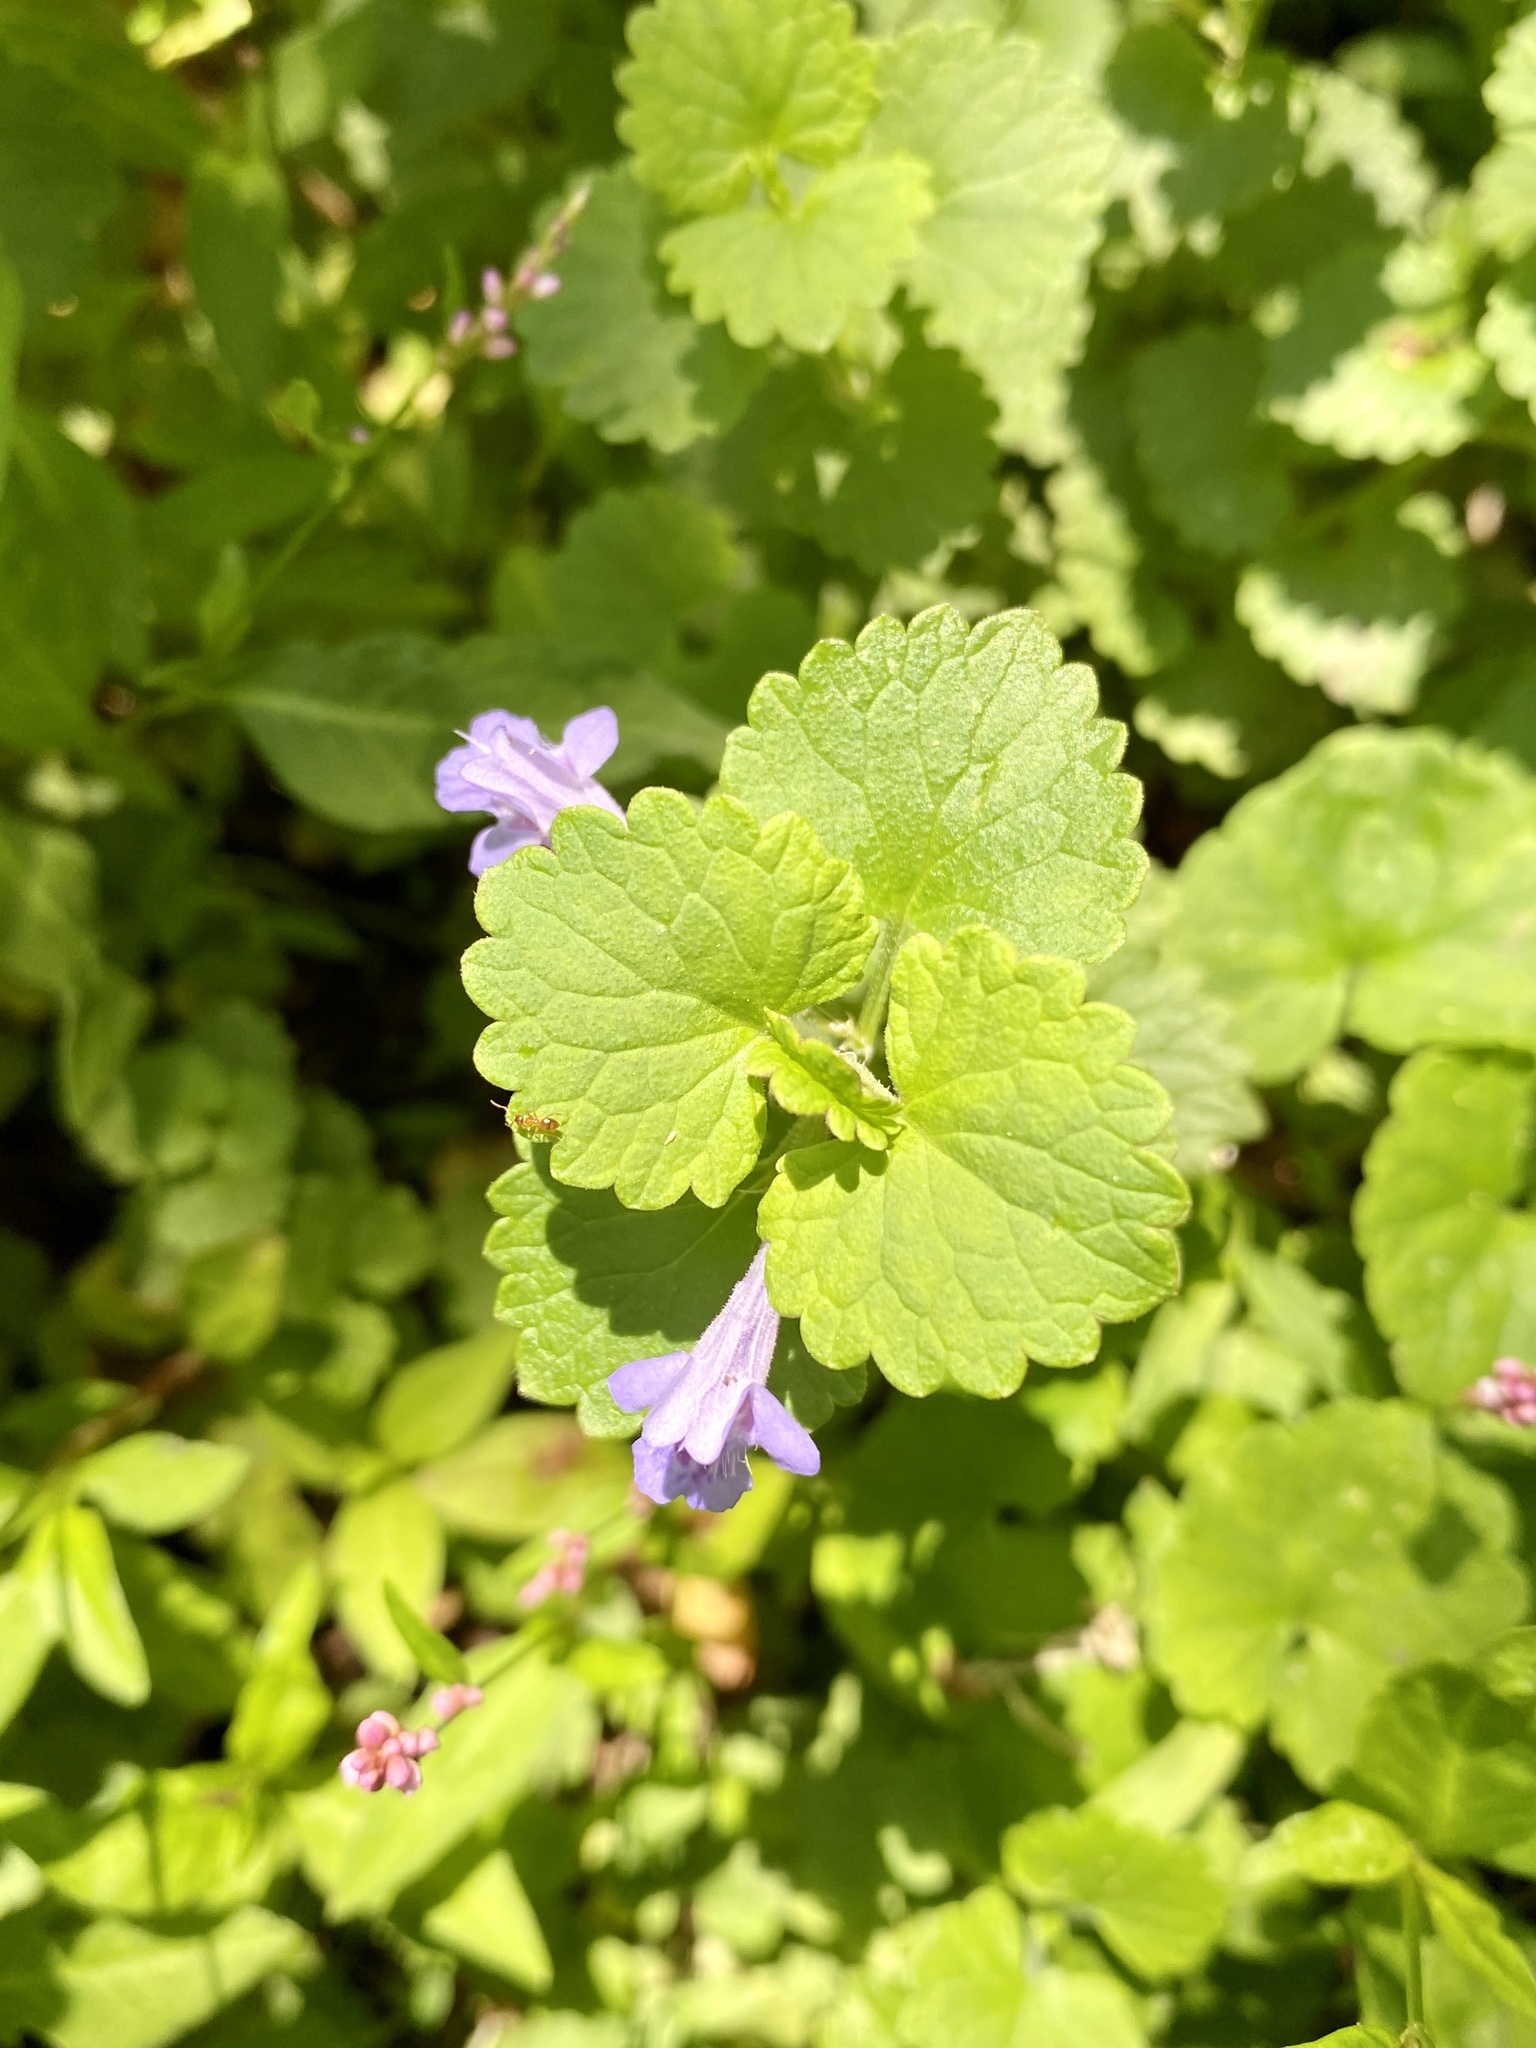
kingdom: Plantae
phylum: Tracheophyta
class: Magnoliopsida
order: Lamiales
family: Lamiaceae
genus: Glechoma
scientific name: Glechoma hederacea
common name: Ground ivy
